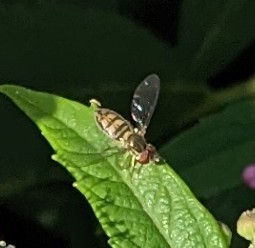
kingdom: Animalia
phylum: Arthropoda
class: Insecta
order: Diptera
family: Syrphidae
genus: Toxomerus
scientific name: Toxomerus marginatus
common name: Syrphid fly
